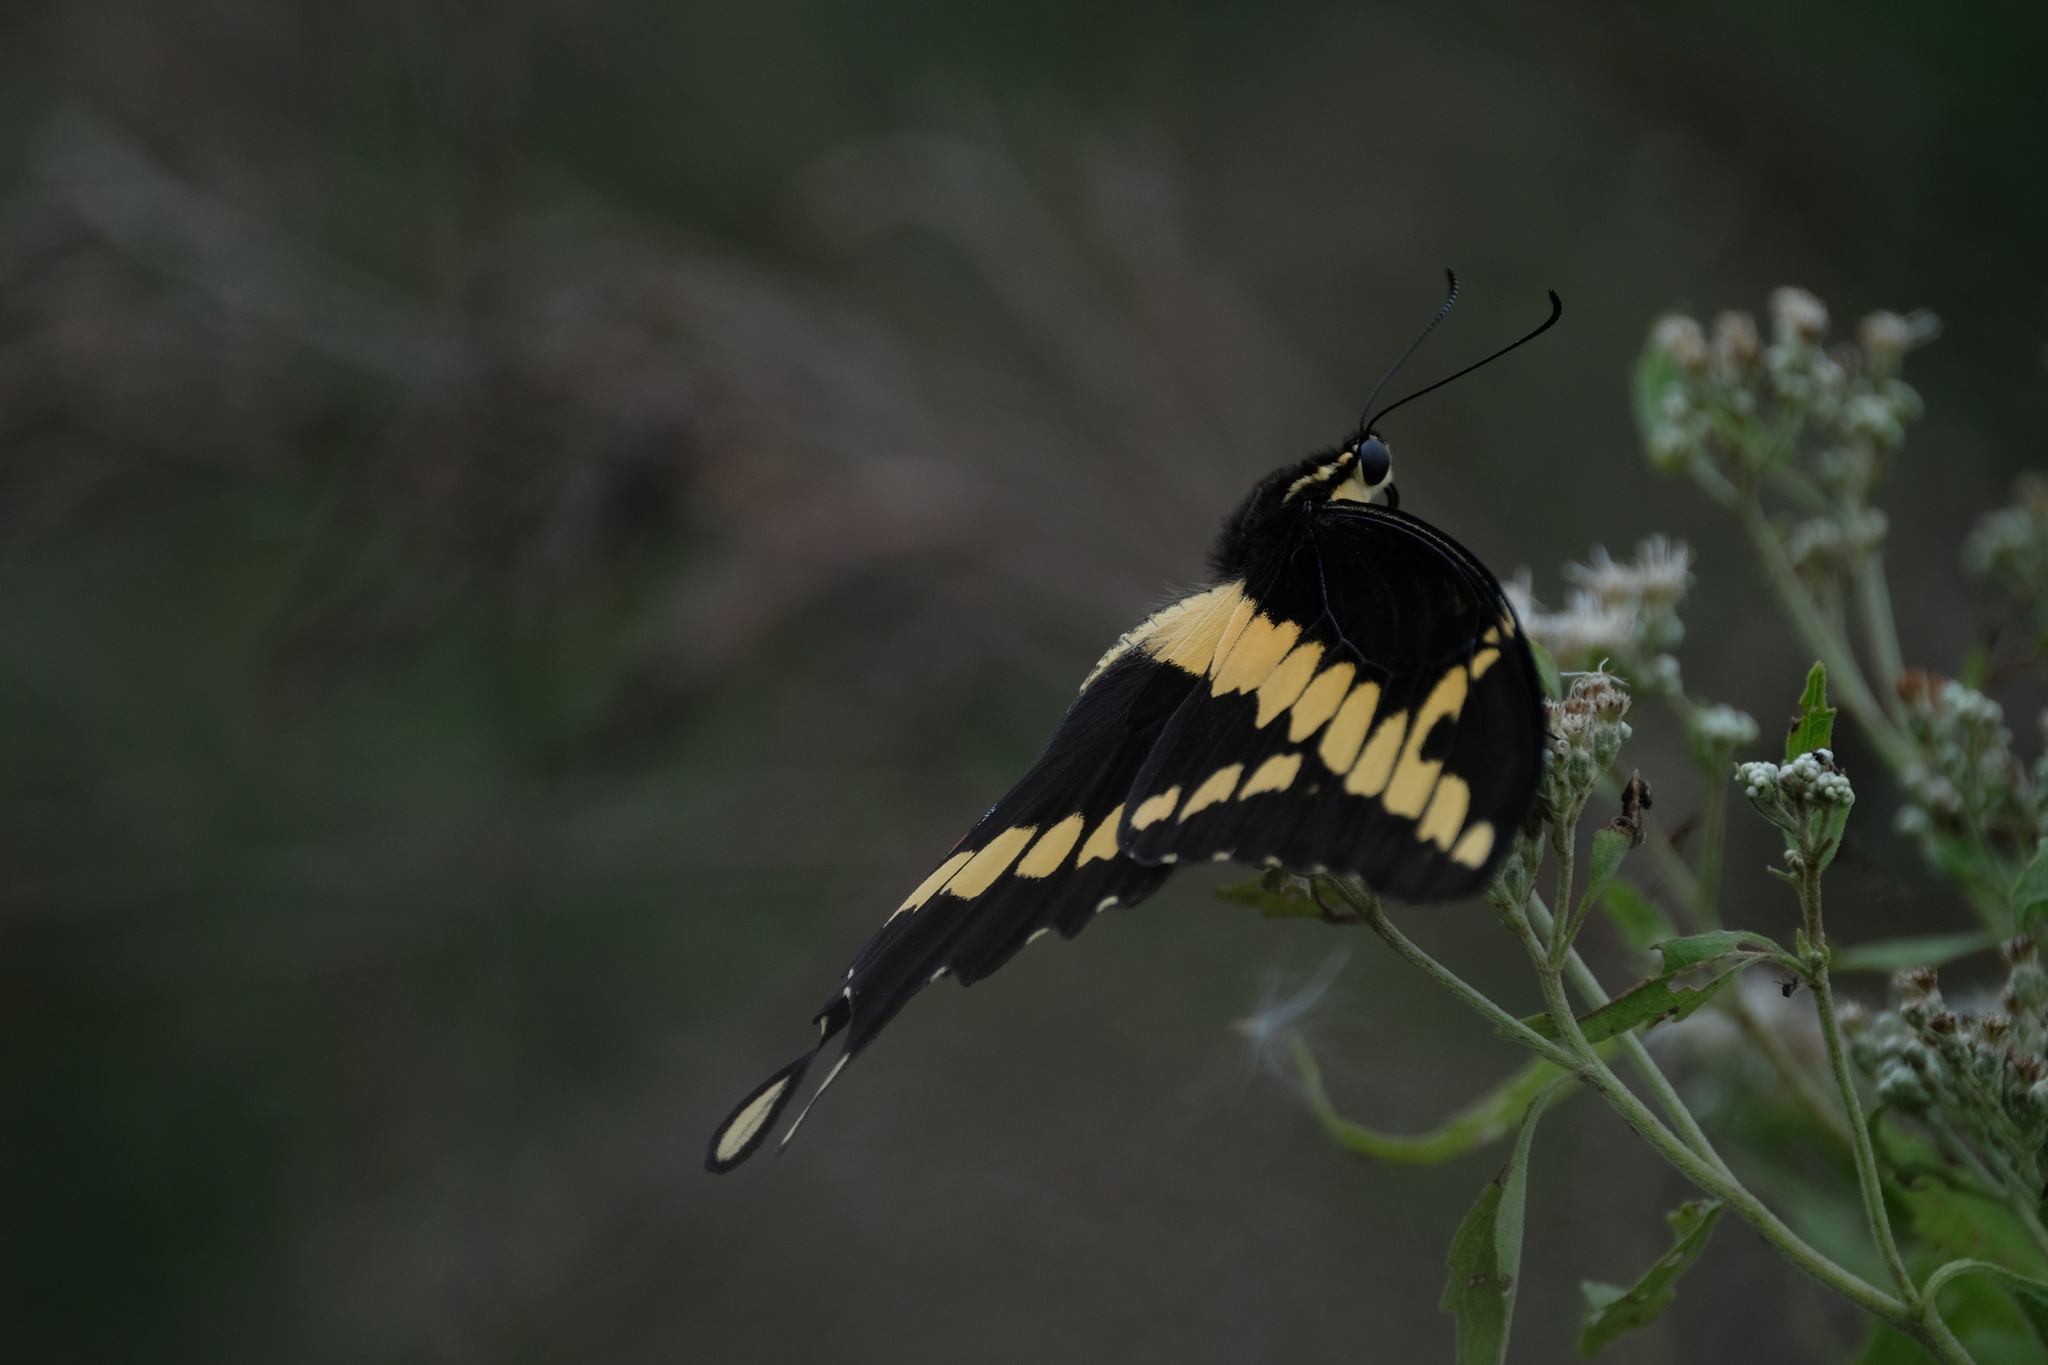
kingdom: Animalia
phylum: Arthropoda
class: Insecta
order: Lepidoptera
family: Papilionidae
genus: Papilio
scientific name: Papilio cresphontes
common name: Giant swallowtail
